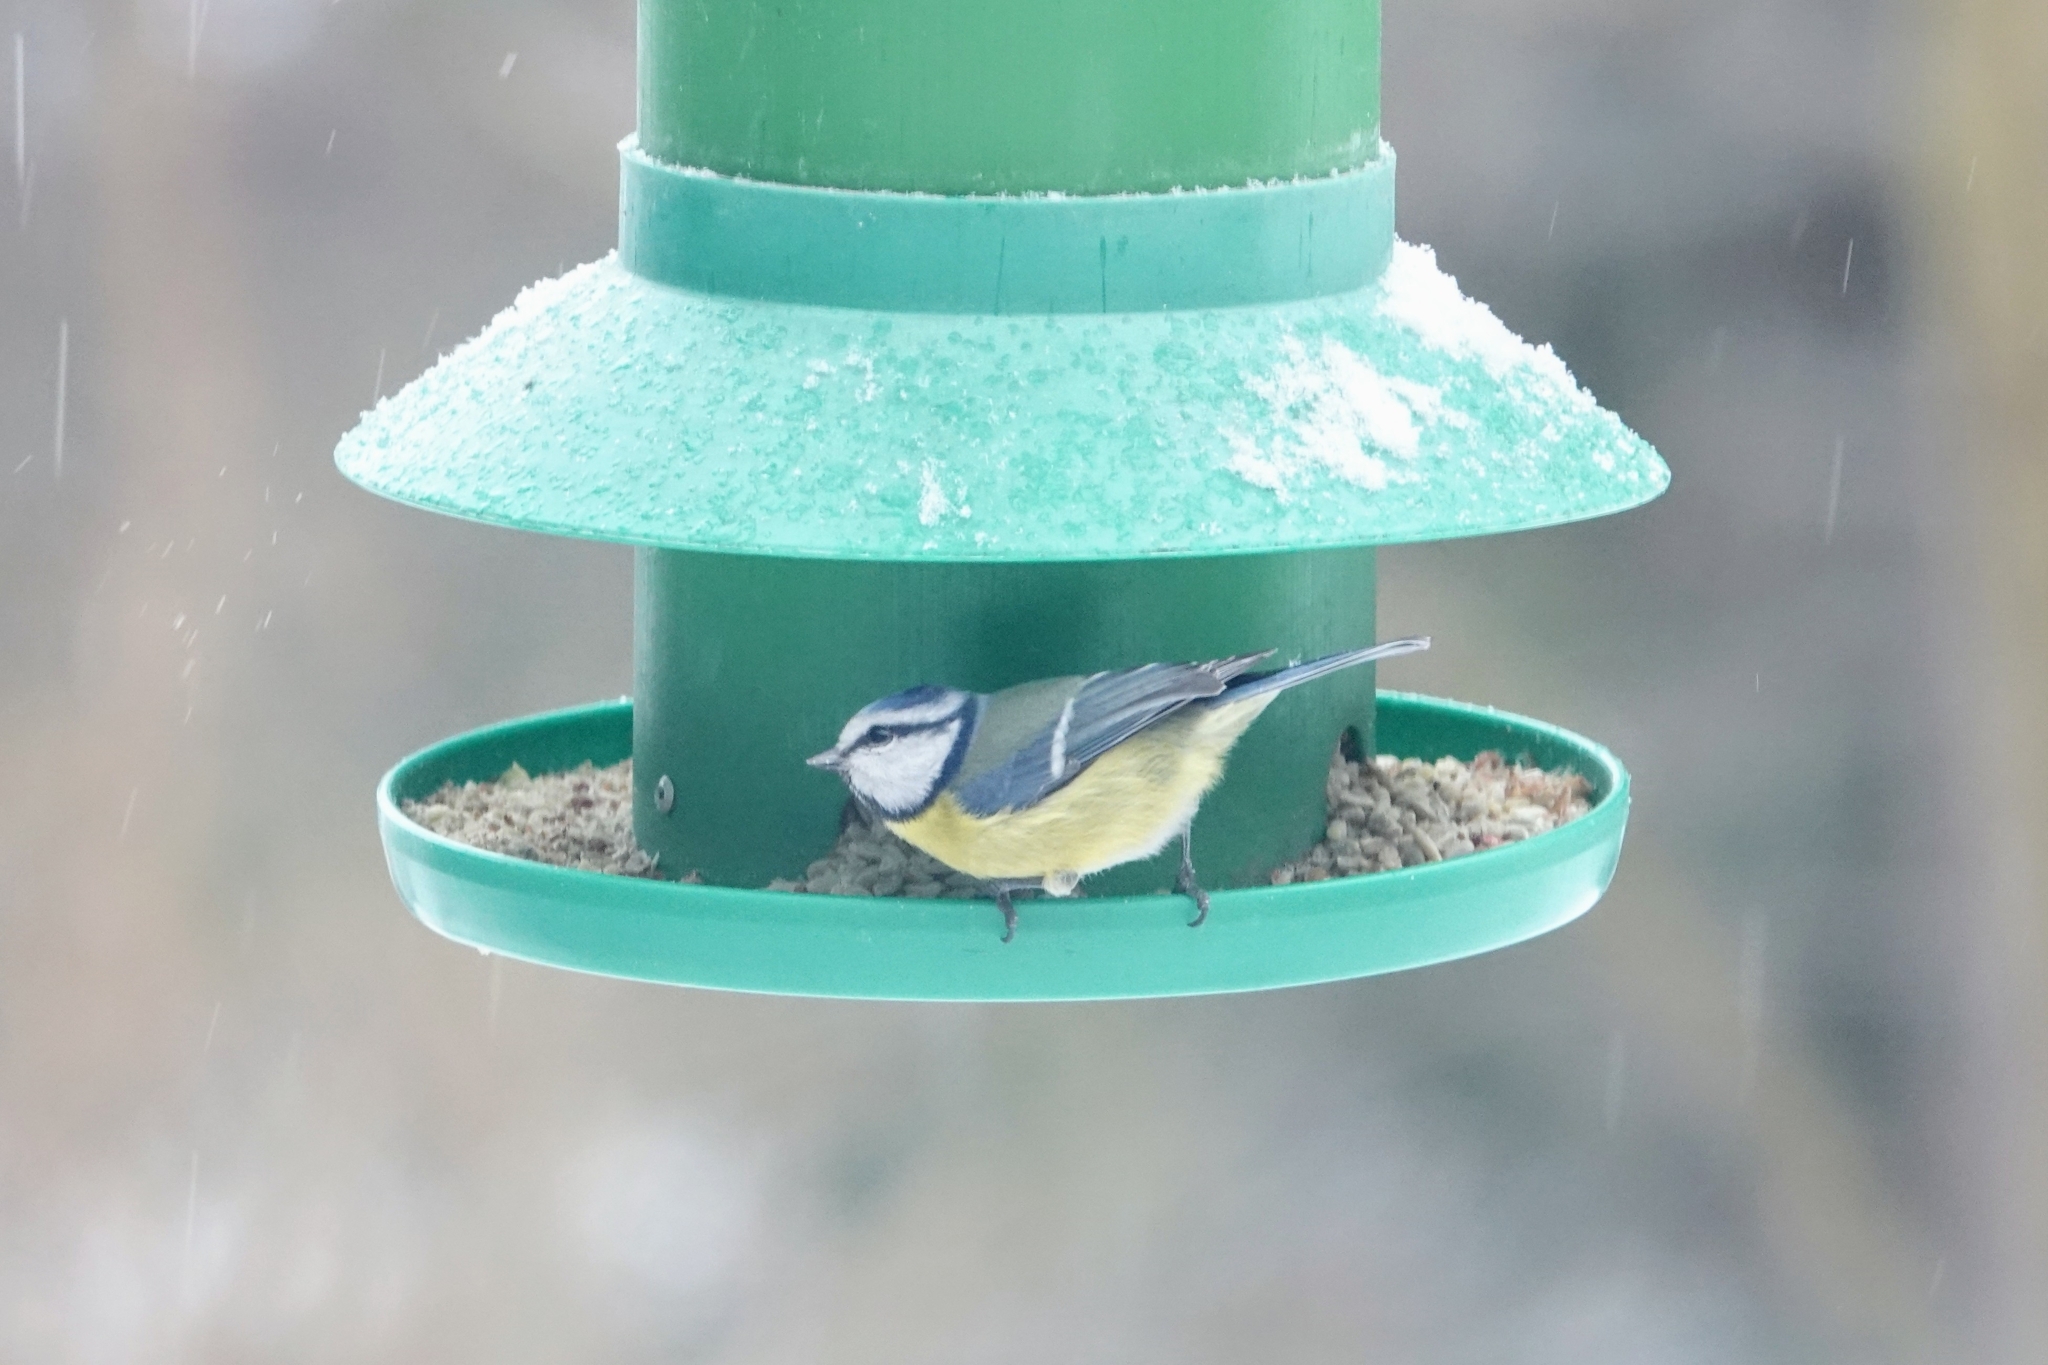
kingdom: Animalia
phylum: Chordata
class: Aves
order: Passeriformes
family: Paridae
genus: Cyanistes
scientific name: Cyanistes caeruleus
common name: Eurasian blue tit
